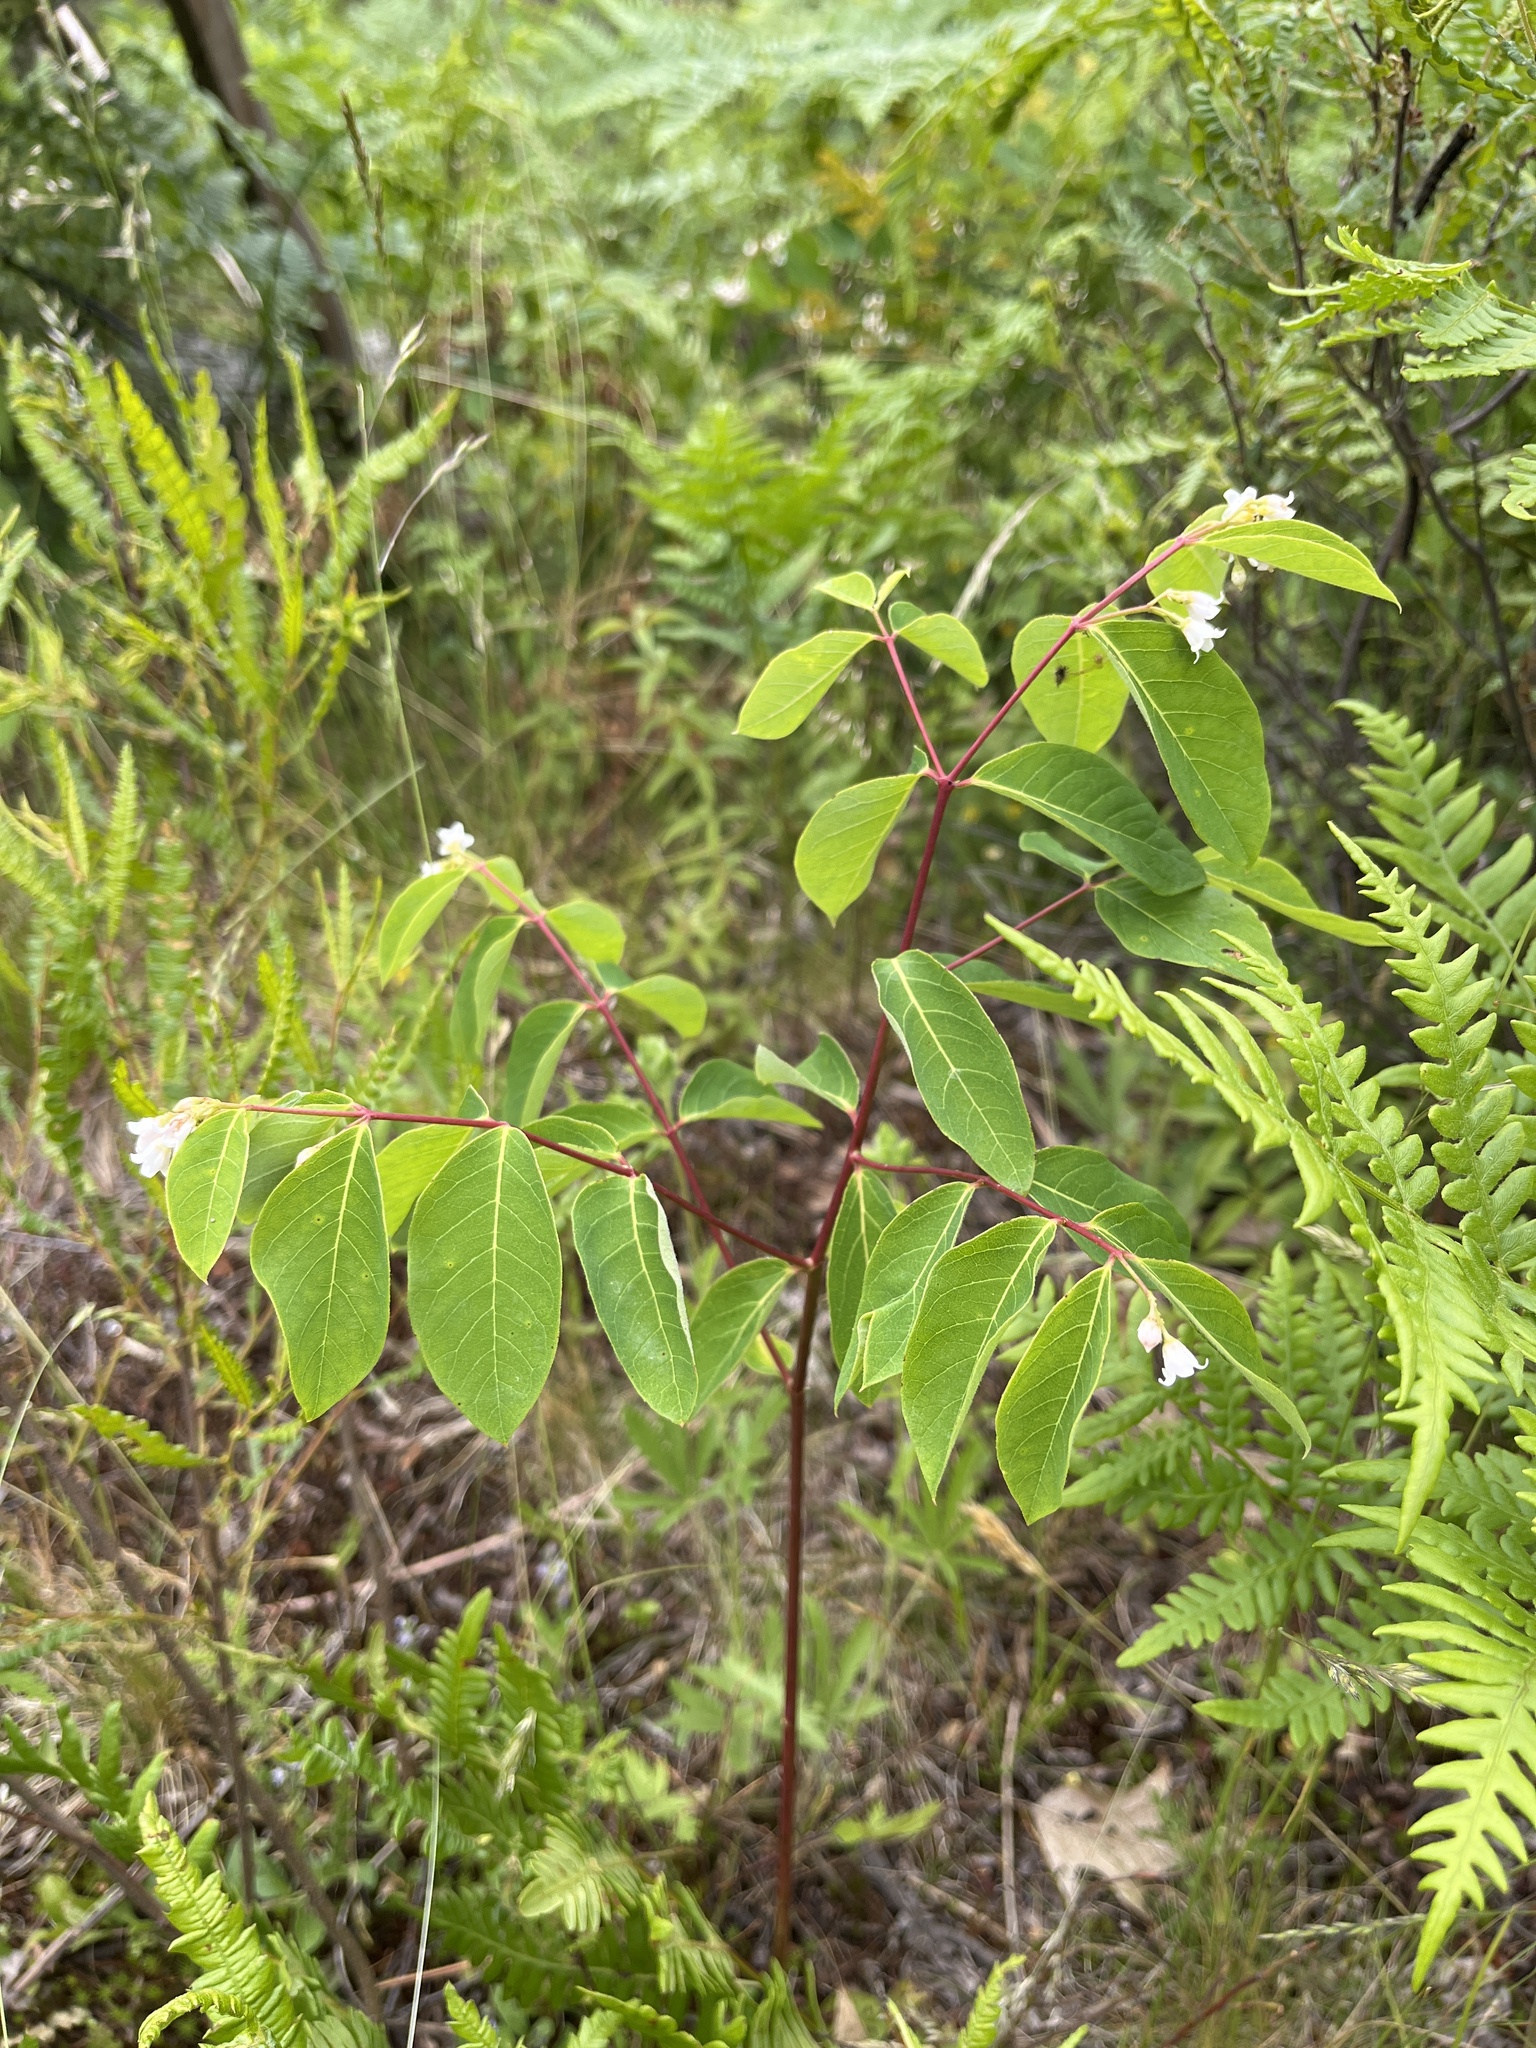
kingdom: Plantae
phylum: Tracheophyta
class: Magnoliopsida
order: Gentianales
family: Apocynaceae
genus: Apocynum
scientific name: Apocynum androsaemifolium
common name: Spreading dogbane
